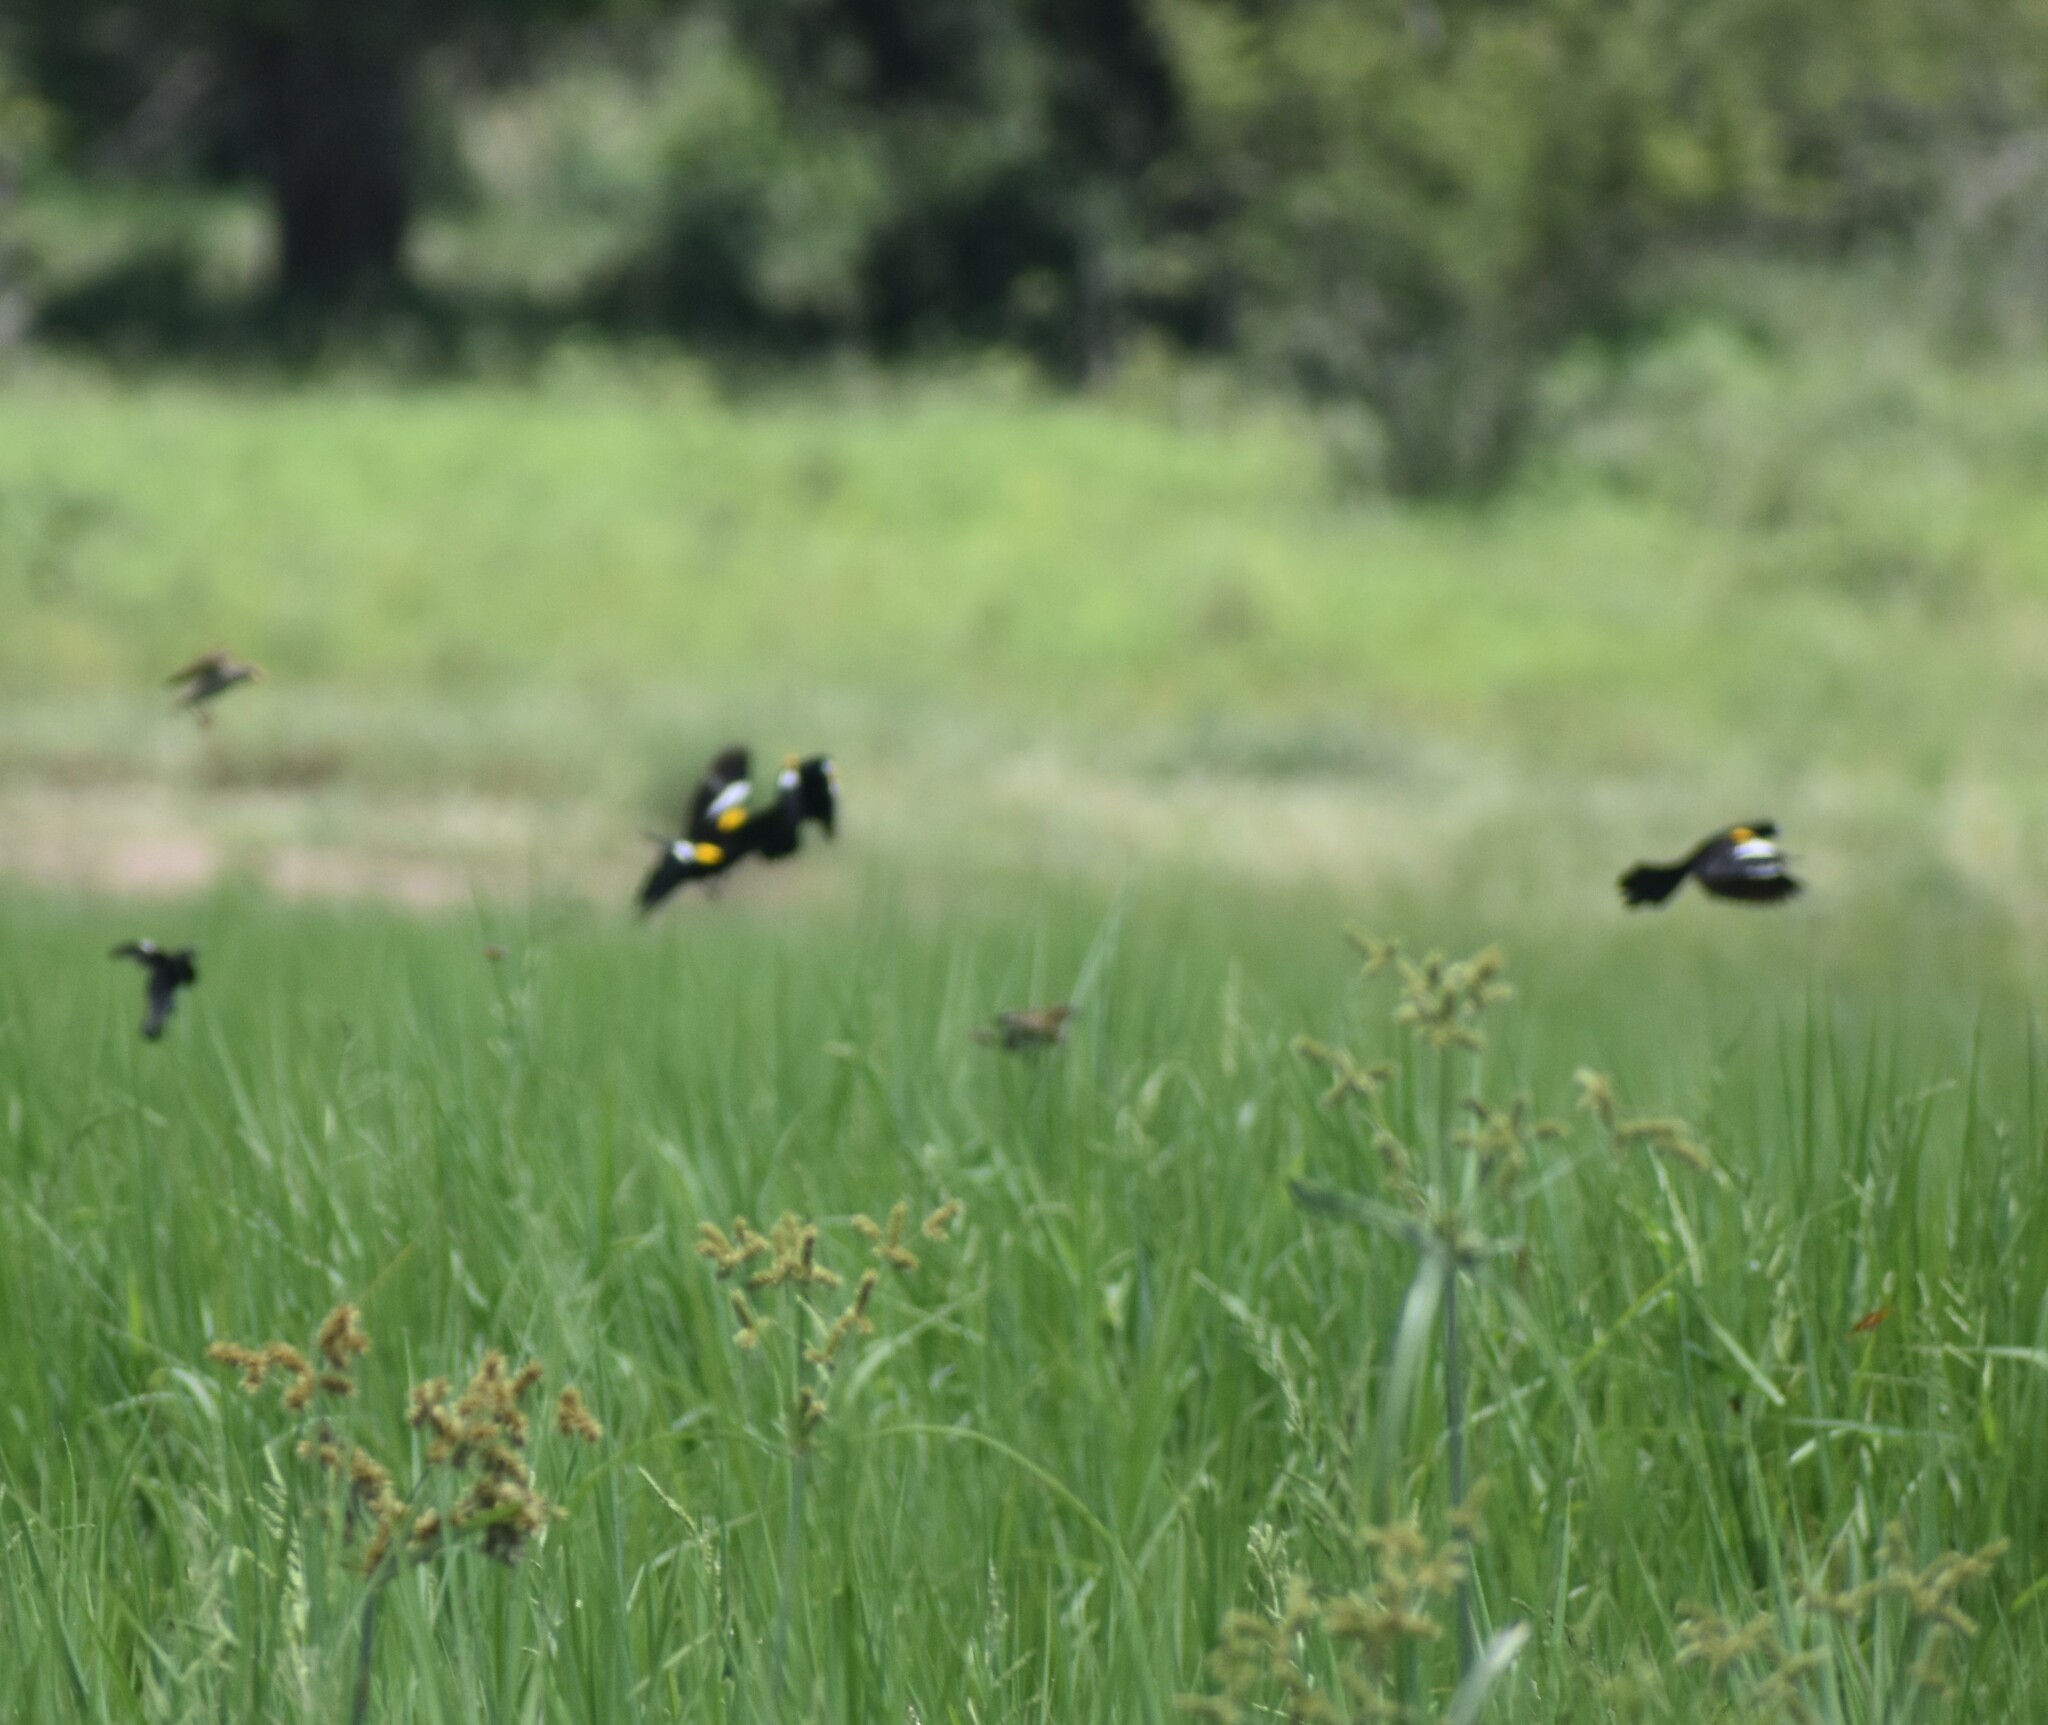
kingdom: Animalia
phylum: Chordata
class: Aves
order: Passeriformes
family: Ploceidae
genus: Euplectes
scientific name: Euplectes albonotatus
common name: White-winged widowbird
